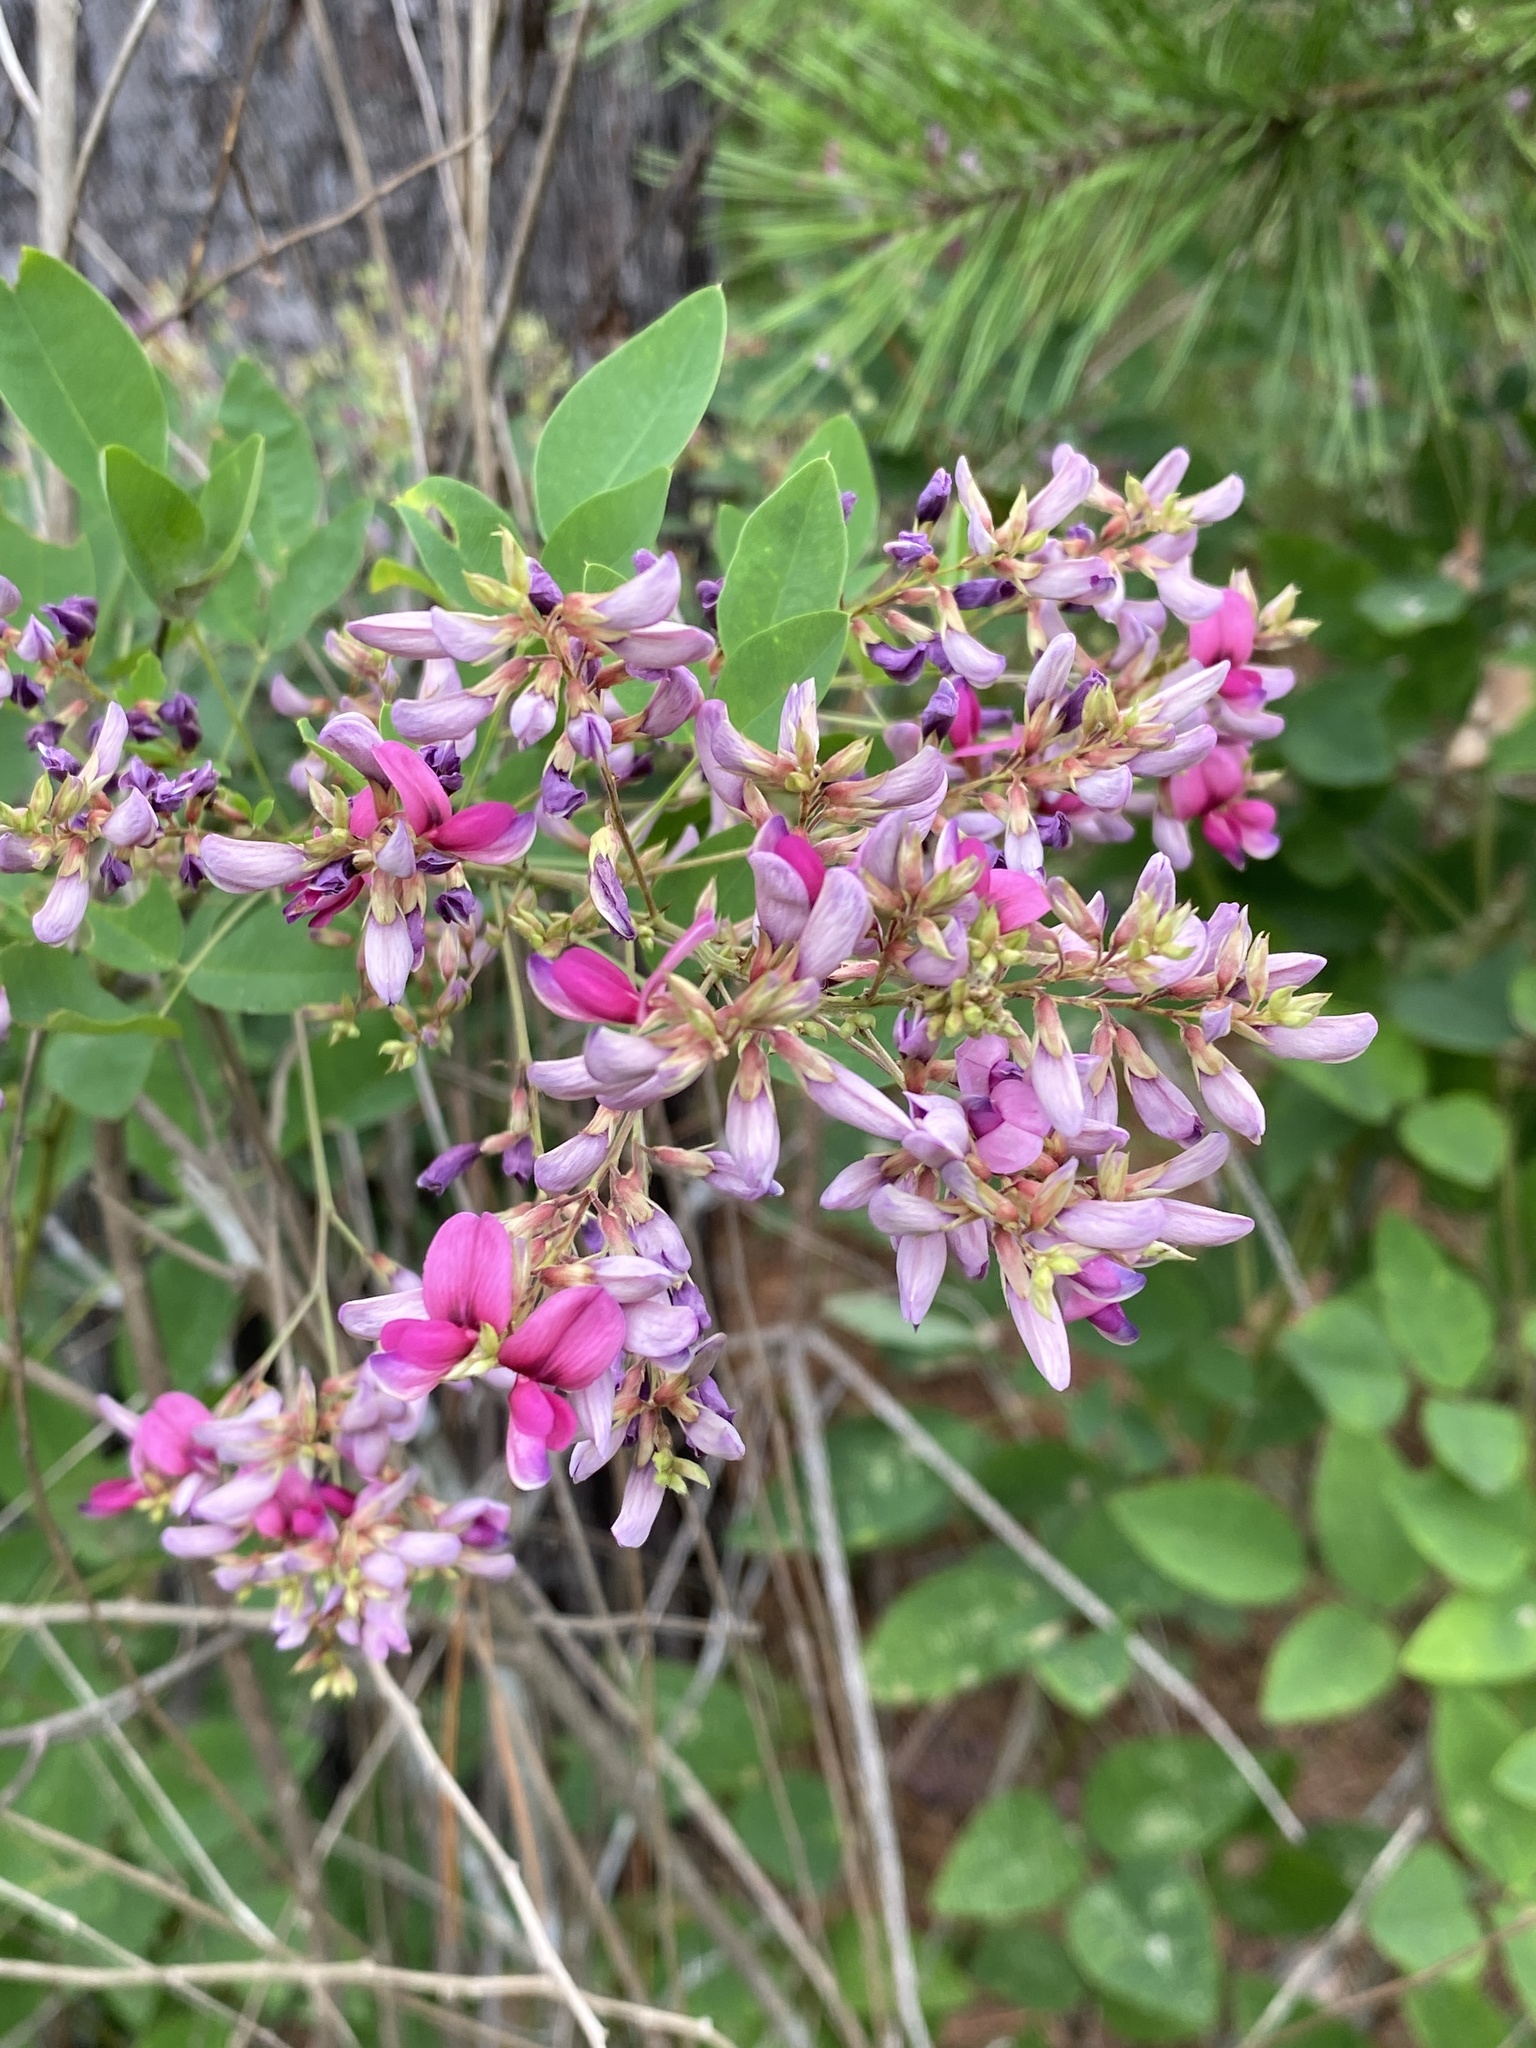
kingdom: Plantae
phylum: Tracheophyta
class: Magnoliopsida
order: Fabales
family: Fabaceae
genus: Lespedeza
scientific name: Lespedeza bicolor
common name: Shrub lespedeza
